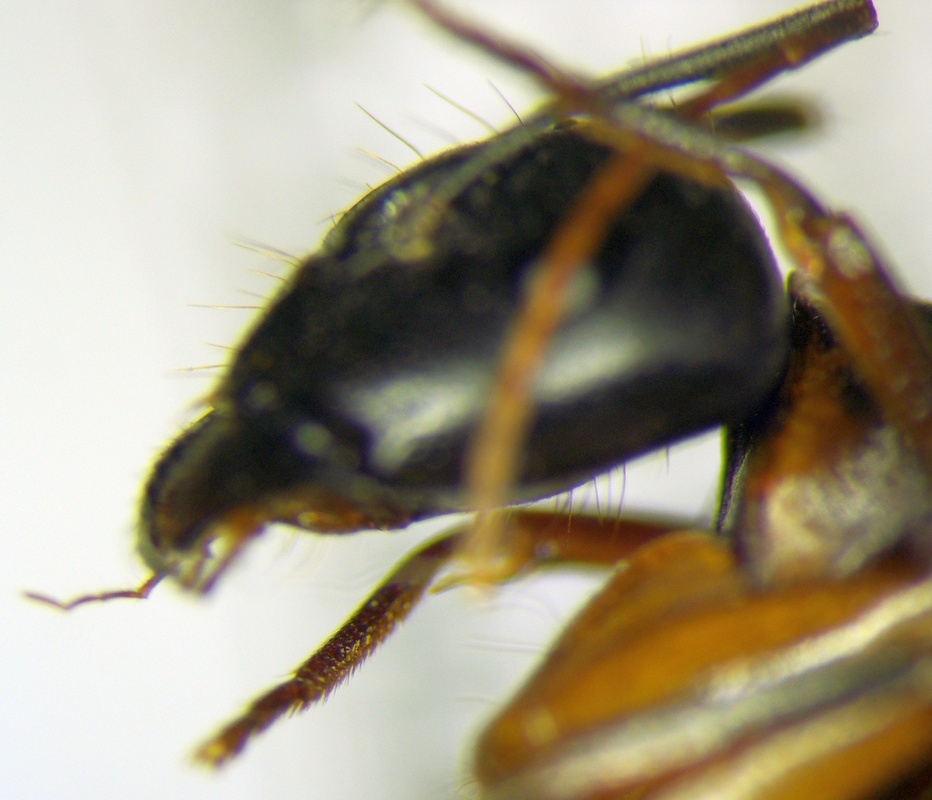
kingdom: Animalia
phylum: Arthropoda
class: Insecta
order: Hymenoptera
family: Formicidae
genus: Camponotus
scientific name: Camponotus baldaccii
